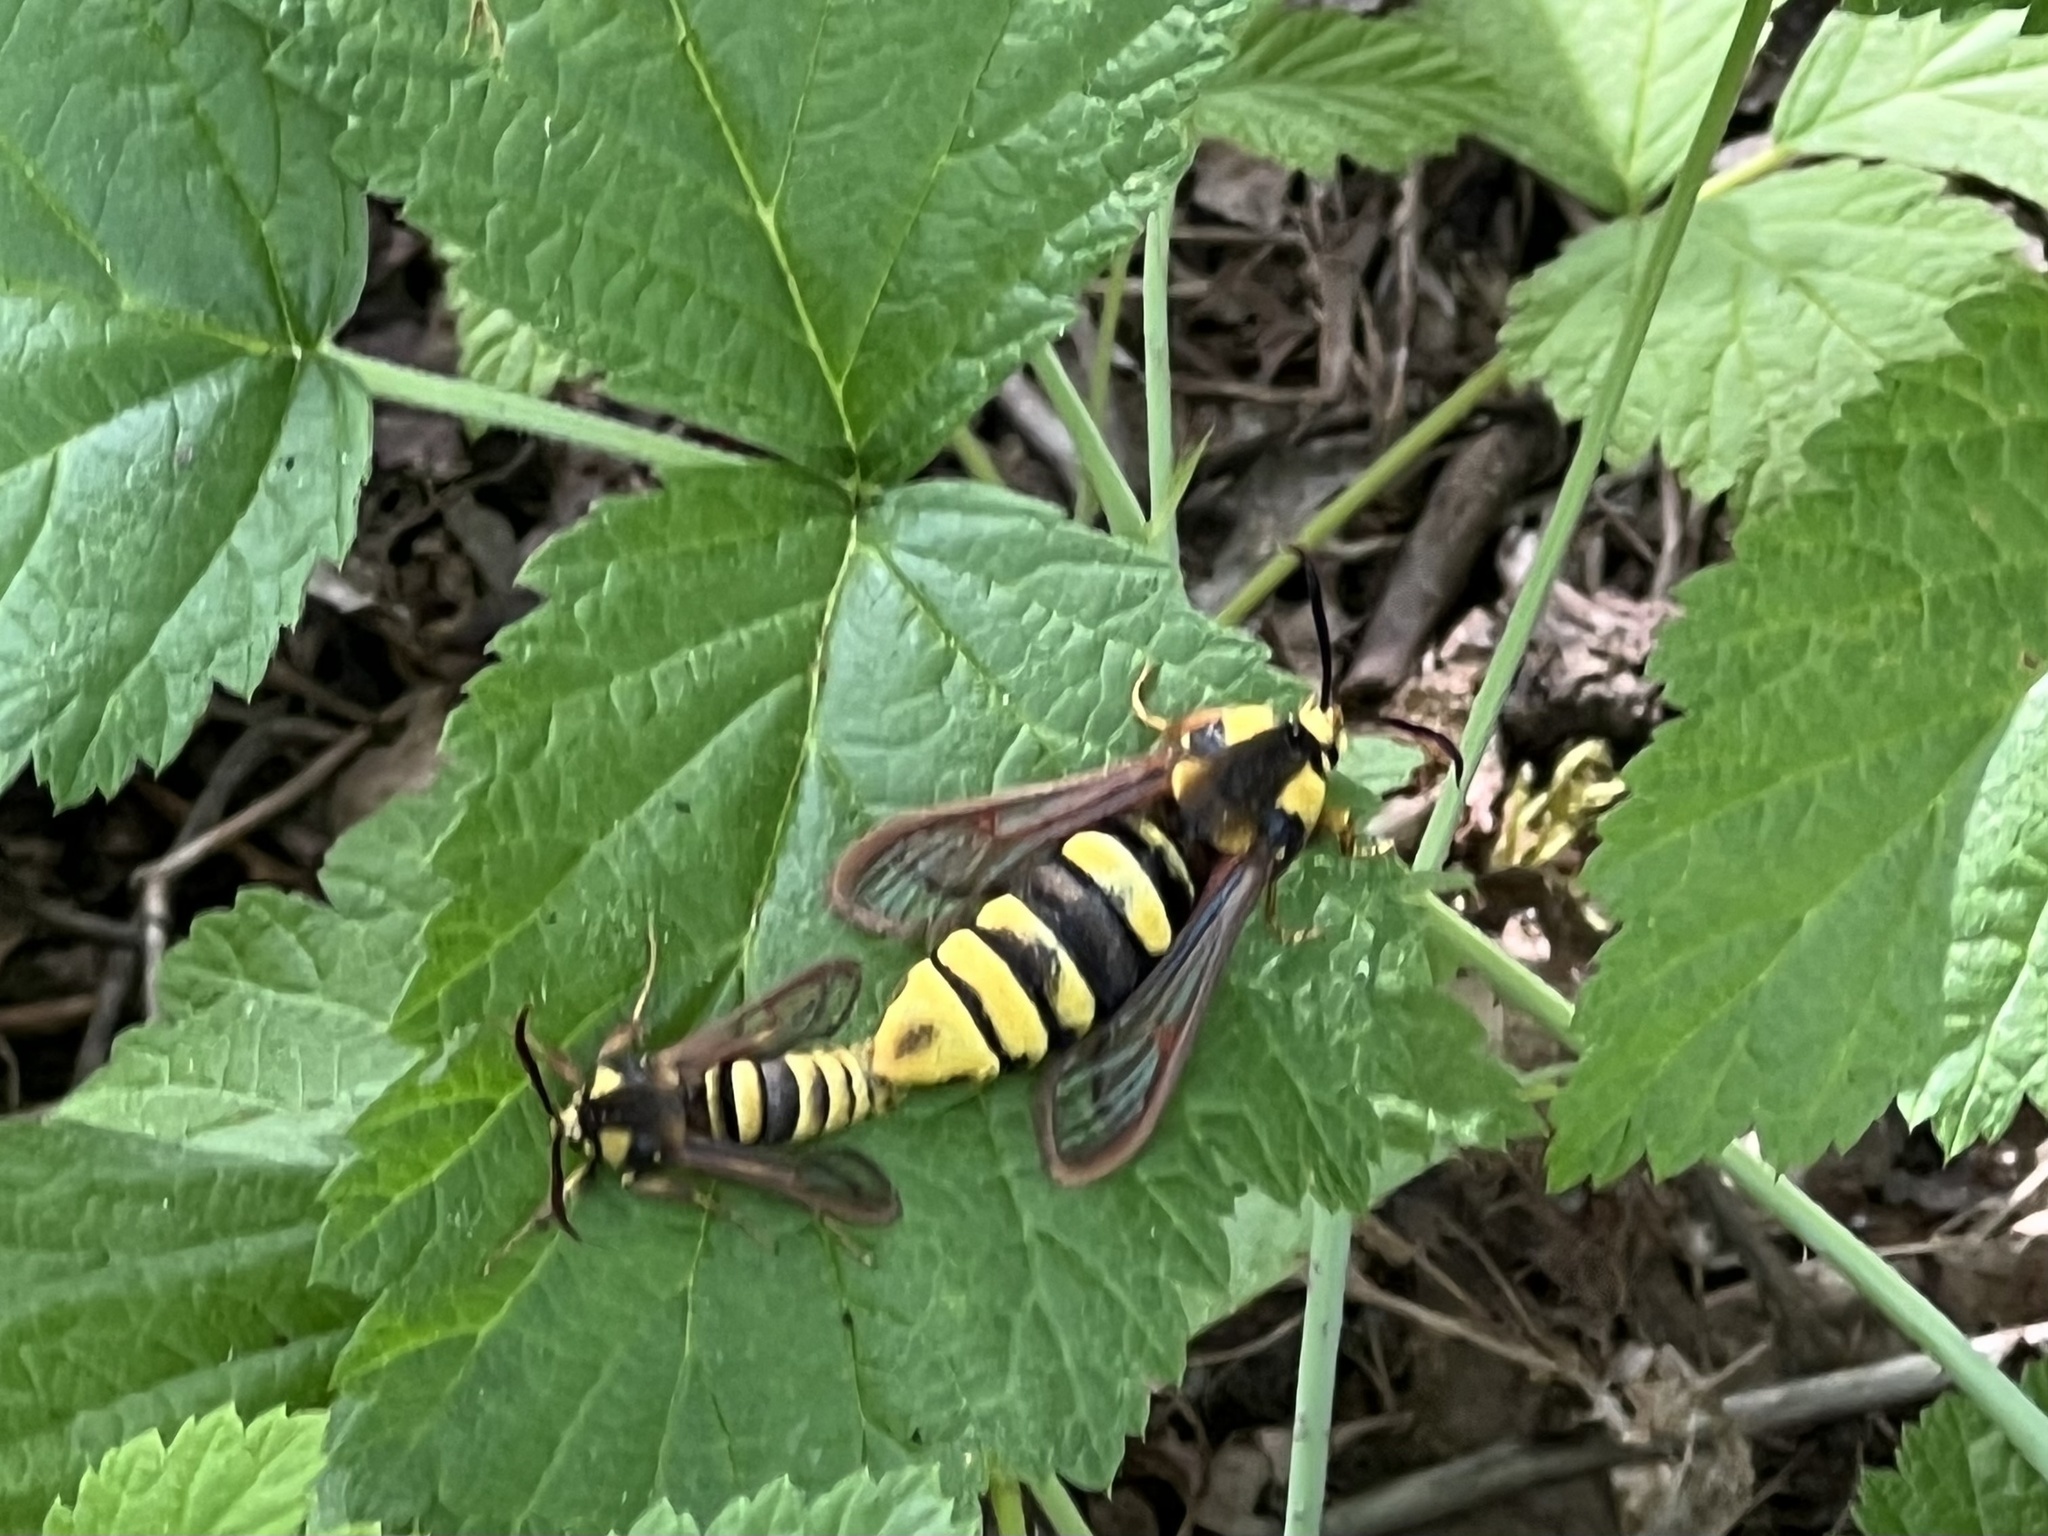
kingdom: Animalia
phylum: Arthropoda
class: Insecta
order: Lepidoptera
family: Sesiidae
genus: Sesia
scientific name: Sesia apiformis
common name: Hornet moth
